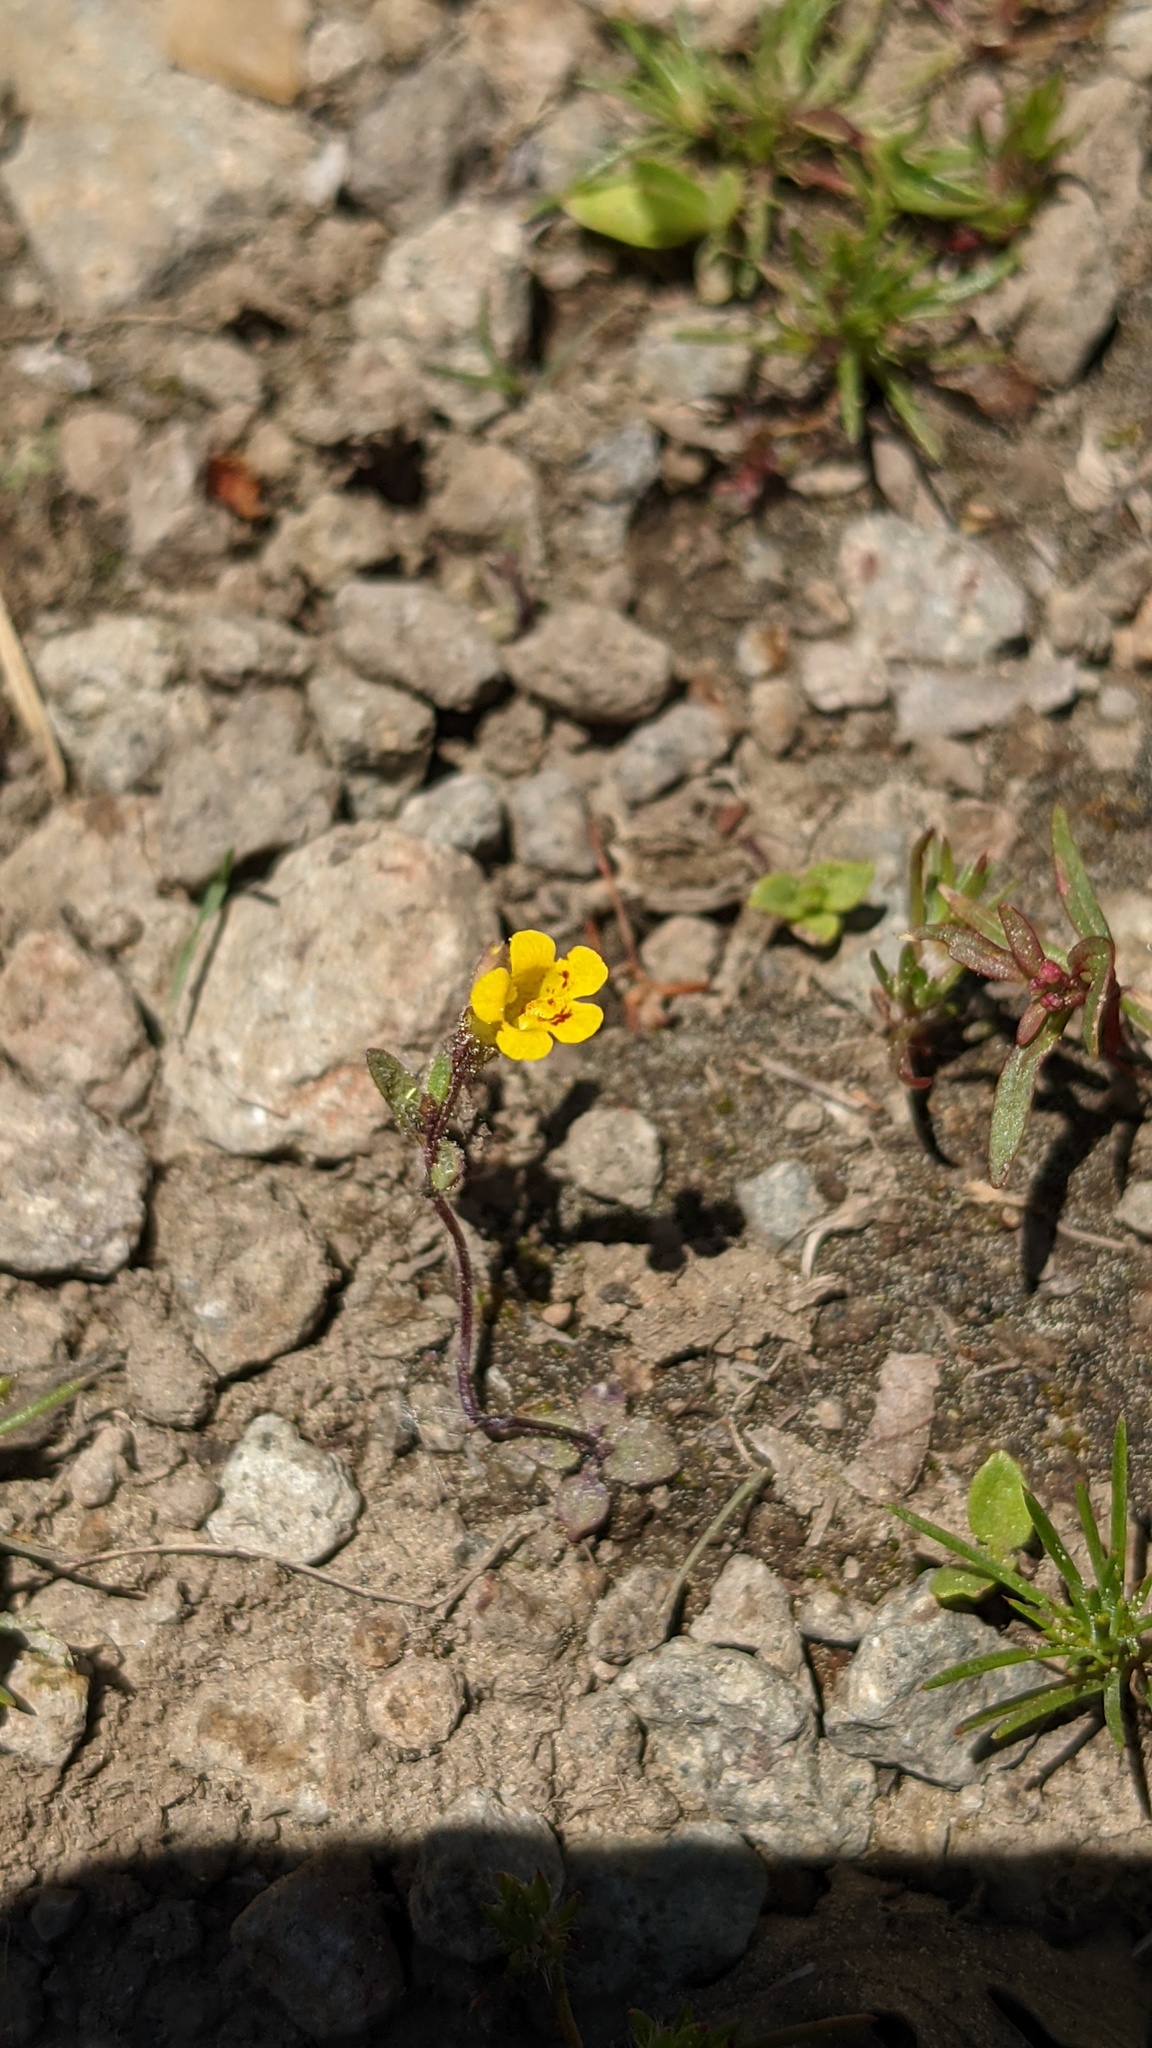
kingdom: Plantae
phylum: Tracheophyta
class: Magnoliopsida
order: Lamiales
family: Phrymaceae
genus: Erythranthe
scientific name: Erythranthe pulsiferae
